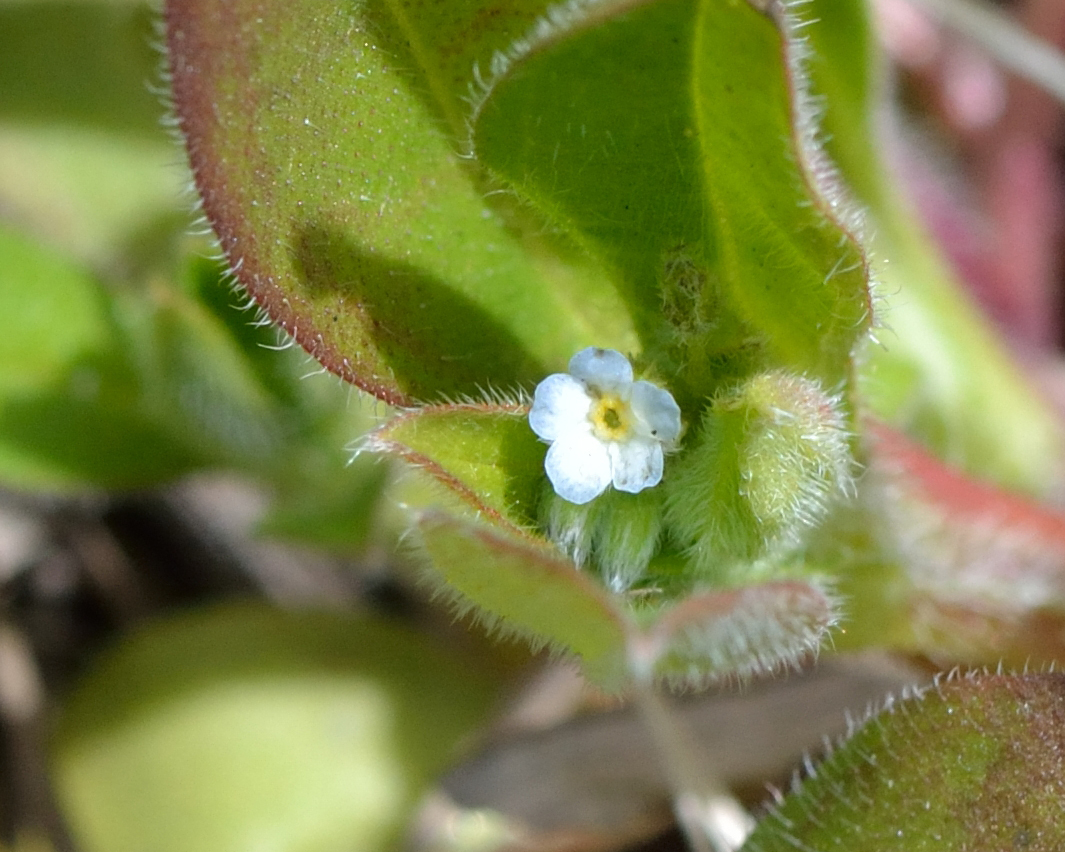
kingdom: Plantae
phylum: Tracheophyta
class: Magnoliopsida
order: Boraginales
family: Boraginaceae
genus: Myosotis
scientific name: Myosotis sparsiflora
